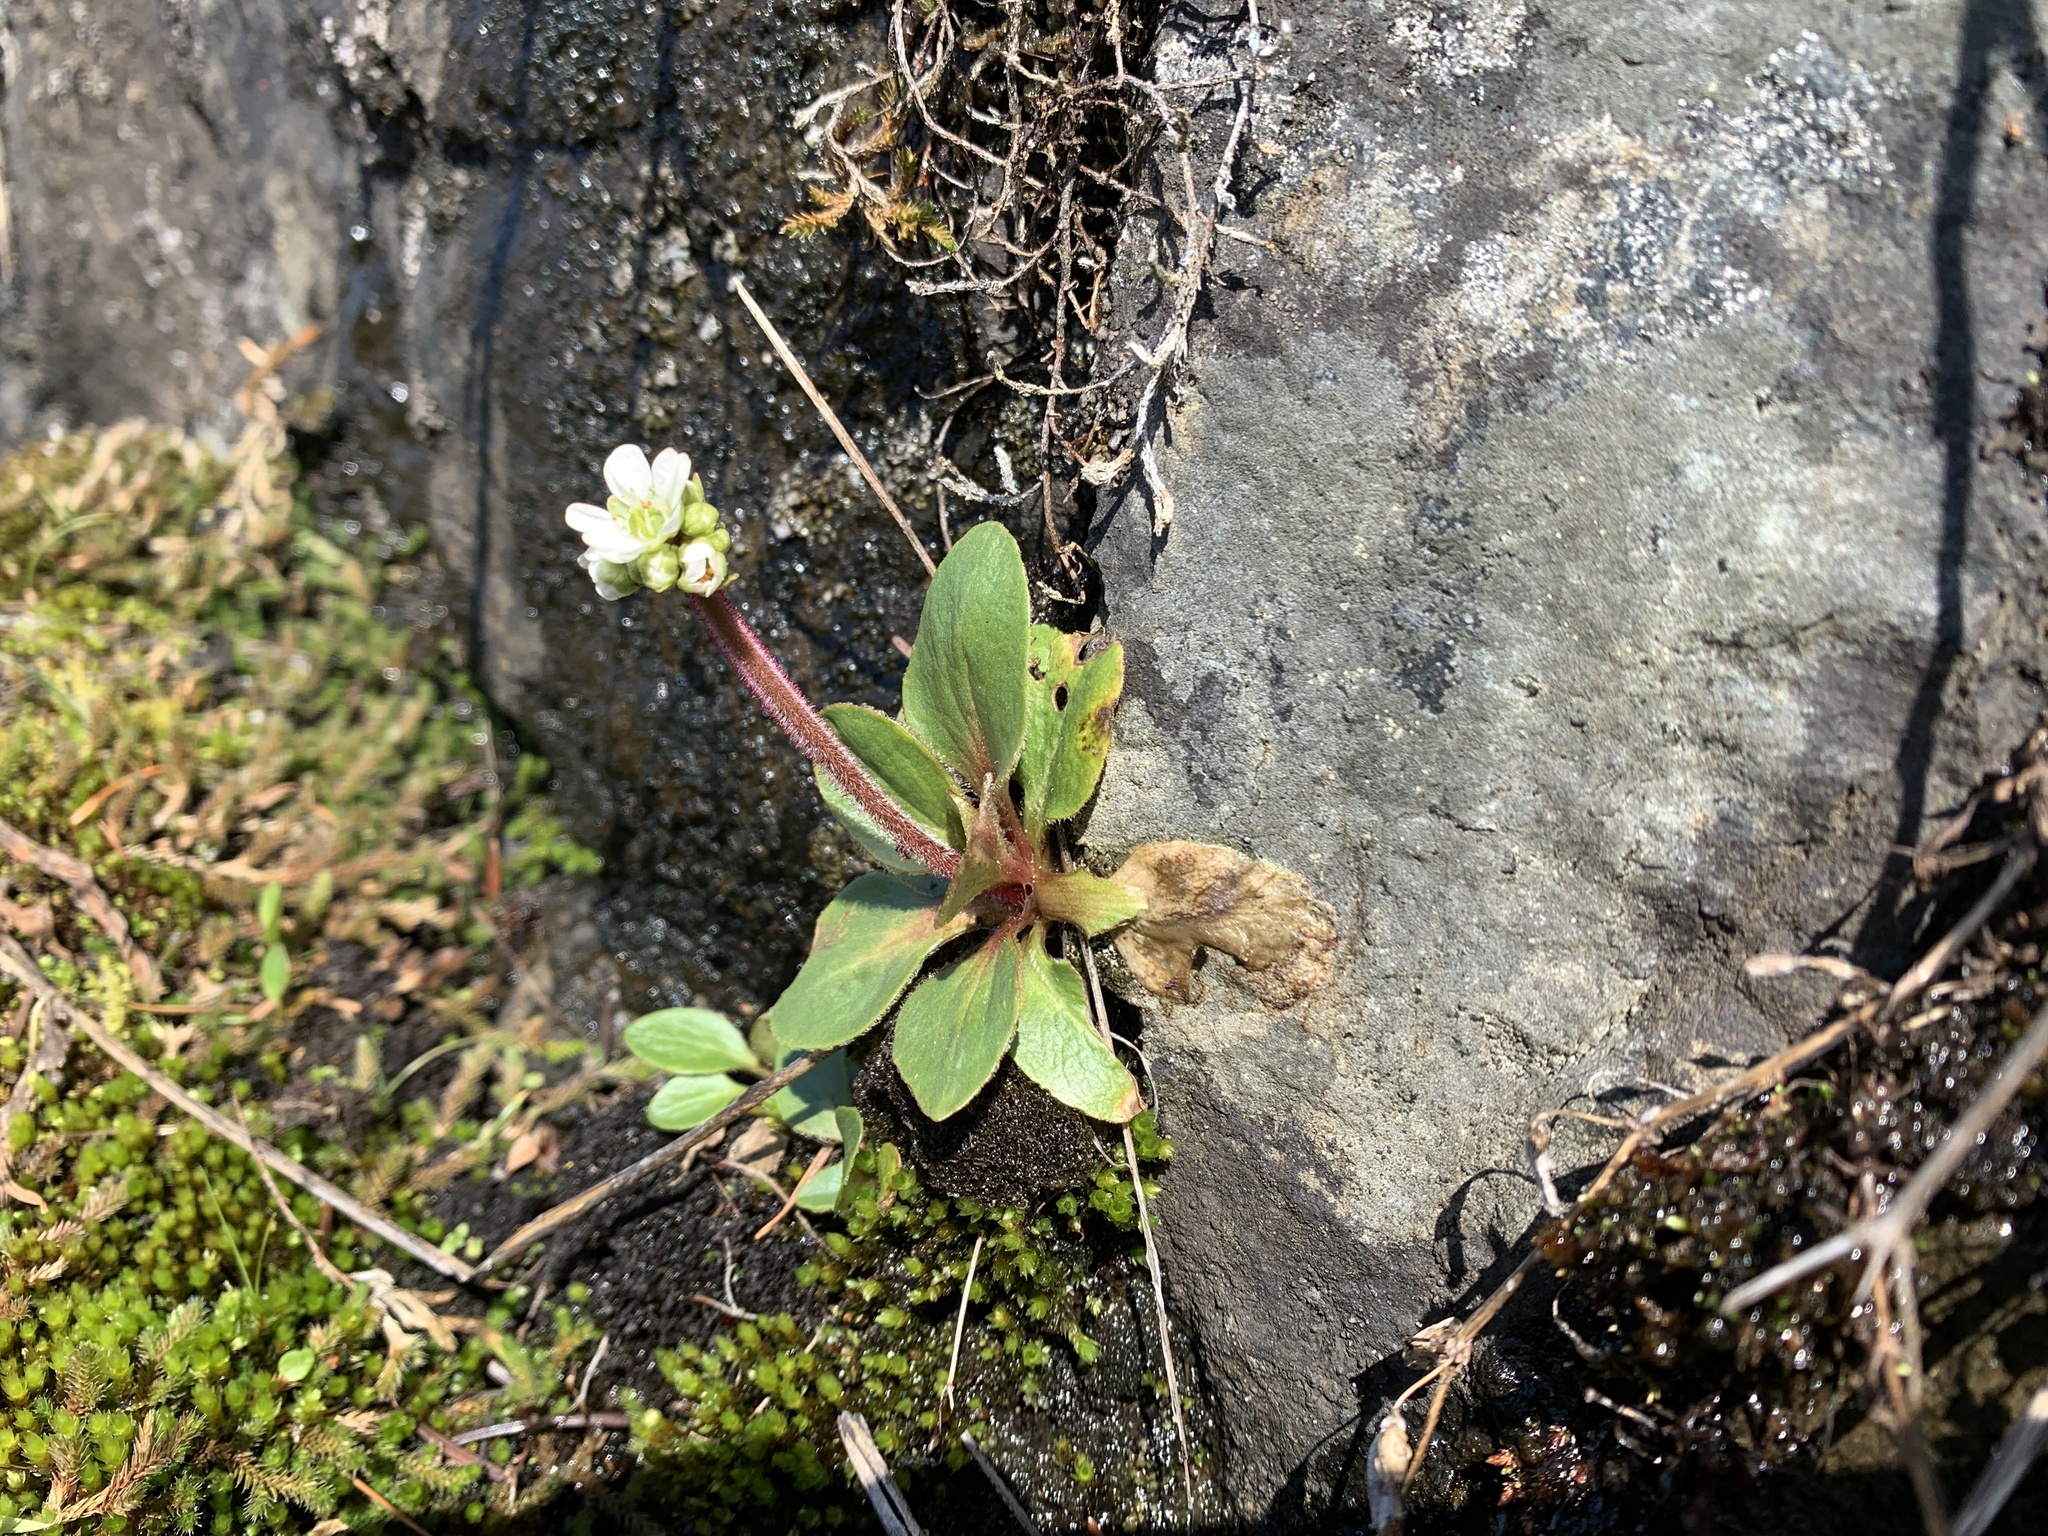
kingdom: Plantae
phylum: Tracheophyta
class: Magnoliopsida
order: Saxifragales
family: Saxifragaceae
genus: Micranthes
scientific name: Micranthes integrifolia
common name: Wholeleaf saxifrage
